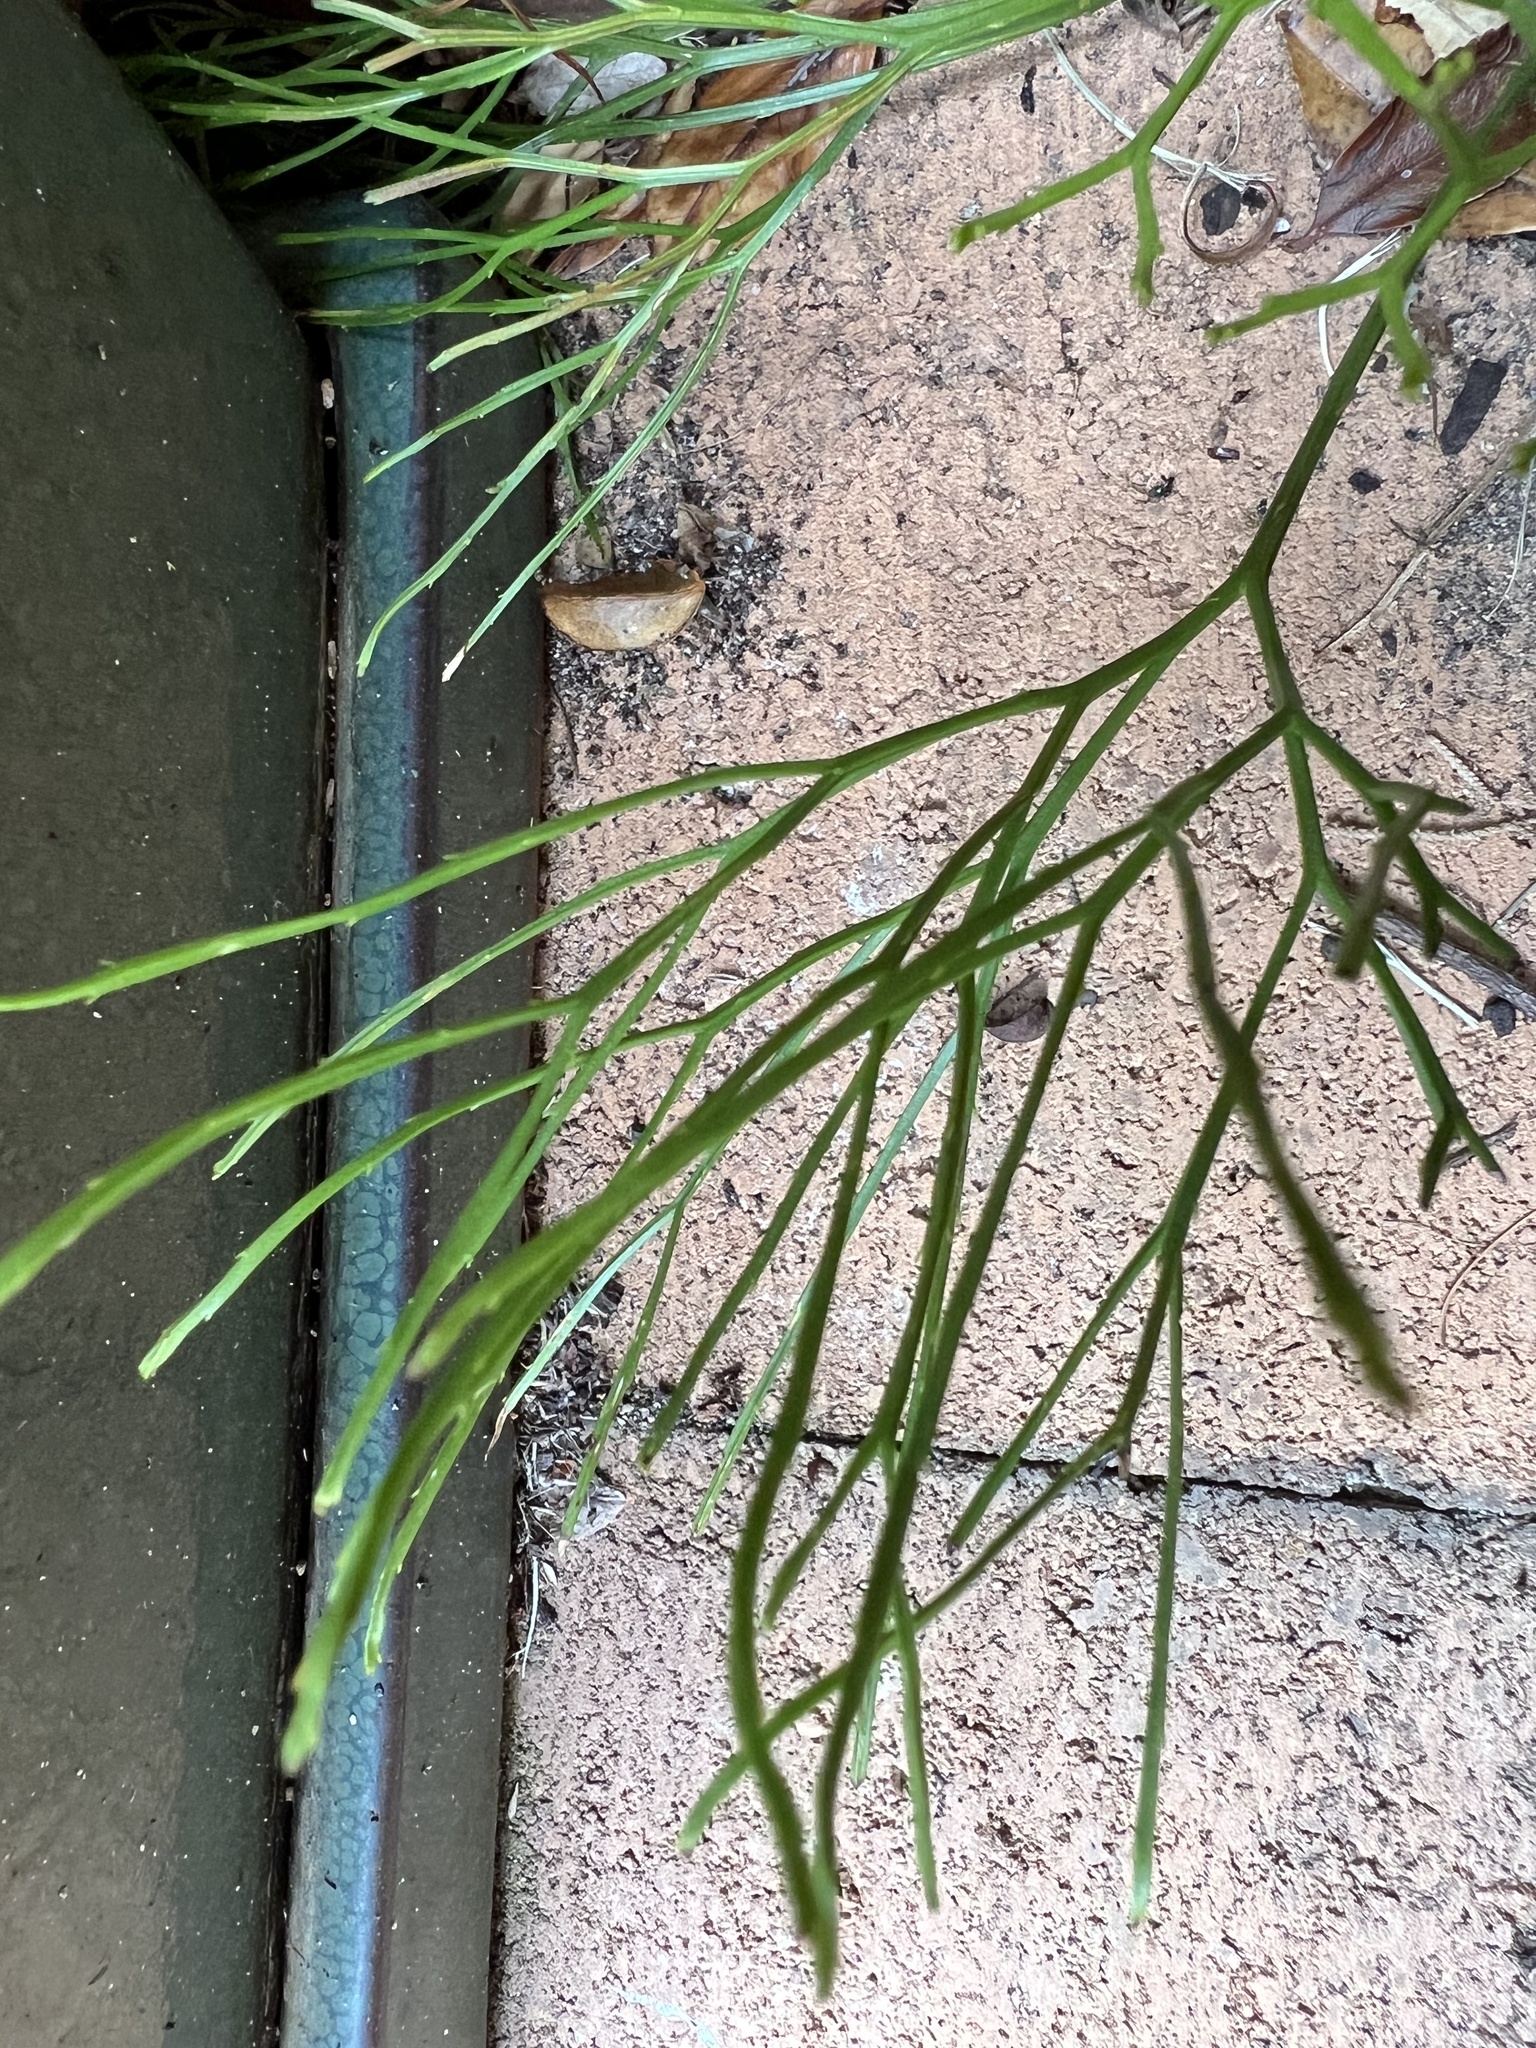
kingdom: Plantae
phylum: Tracheophyta
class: Polypodiopsida
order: Psilotales
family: Psilotaceae
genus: Psilotum
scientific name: Psilotum nudum
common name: Skeleton fork fern
